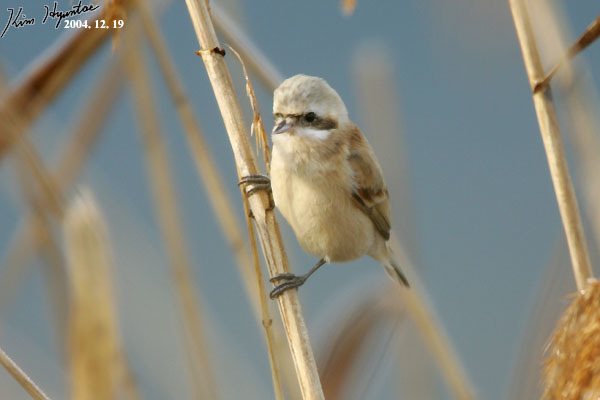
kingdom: Animalia
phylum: Chordata
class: Aves
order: Passeriformes
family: Remizidae
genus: Remiz
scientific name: Remiz consobrinus
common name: Chinese penduline tit
